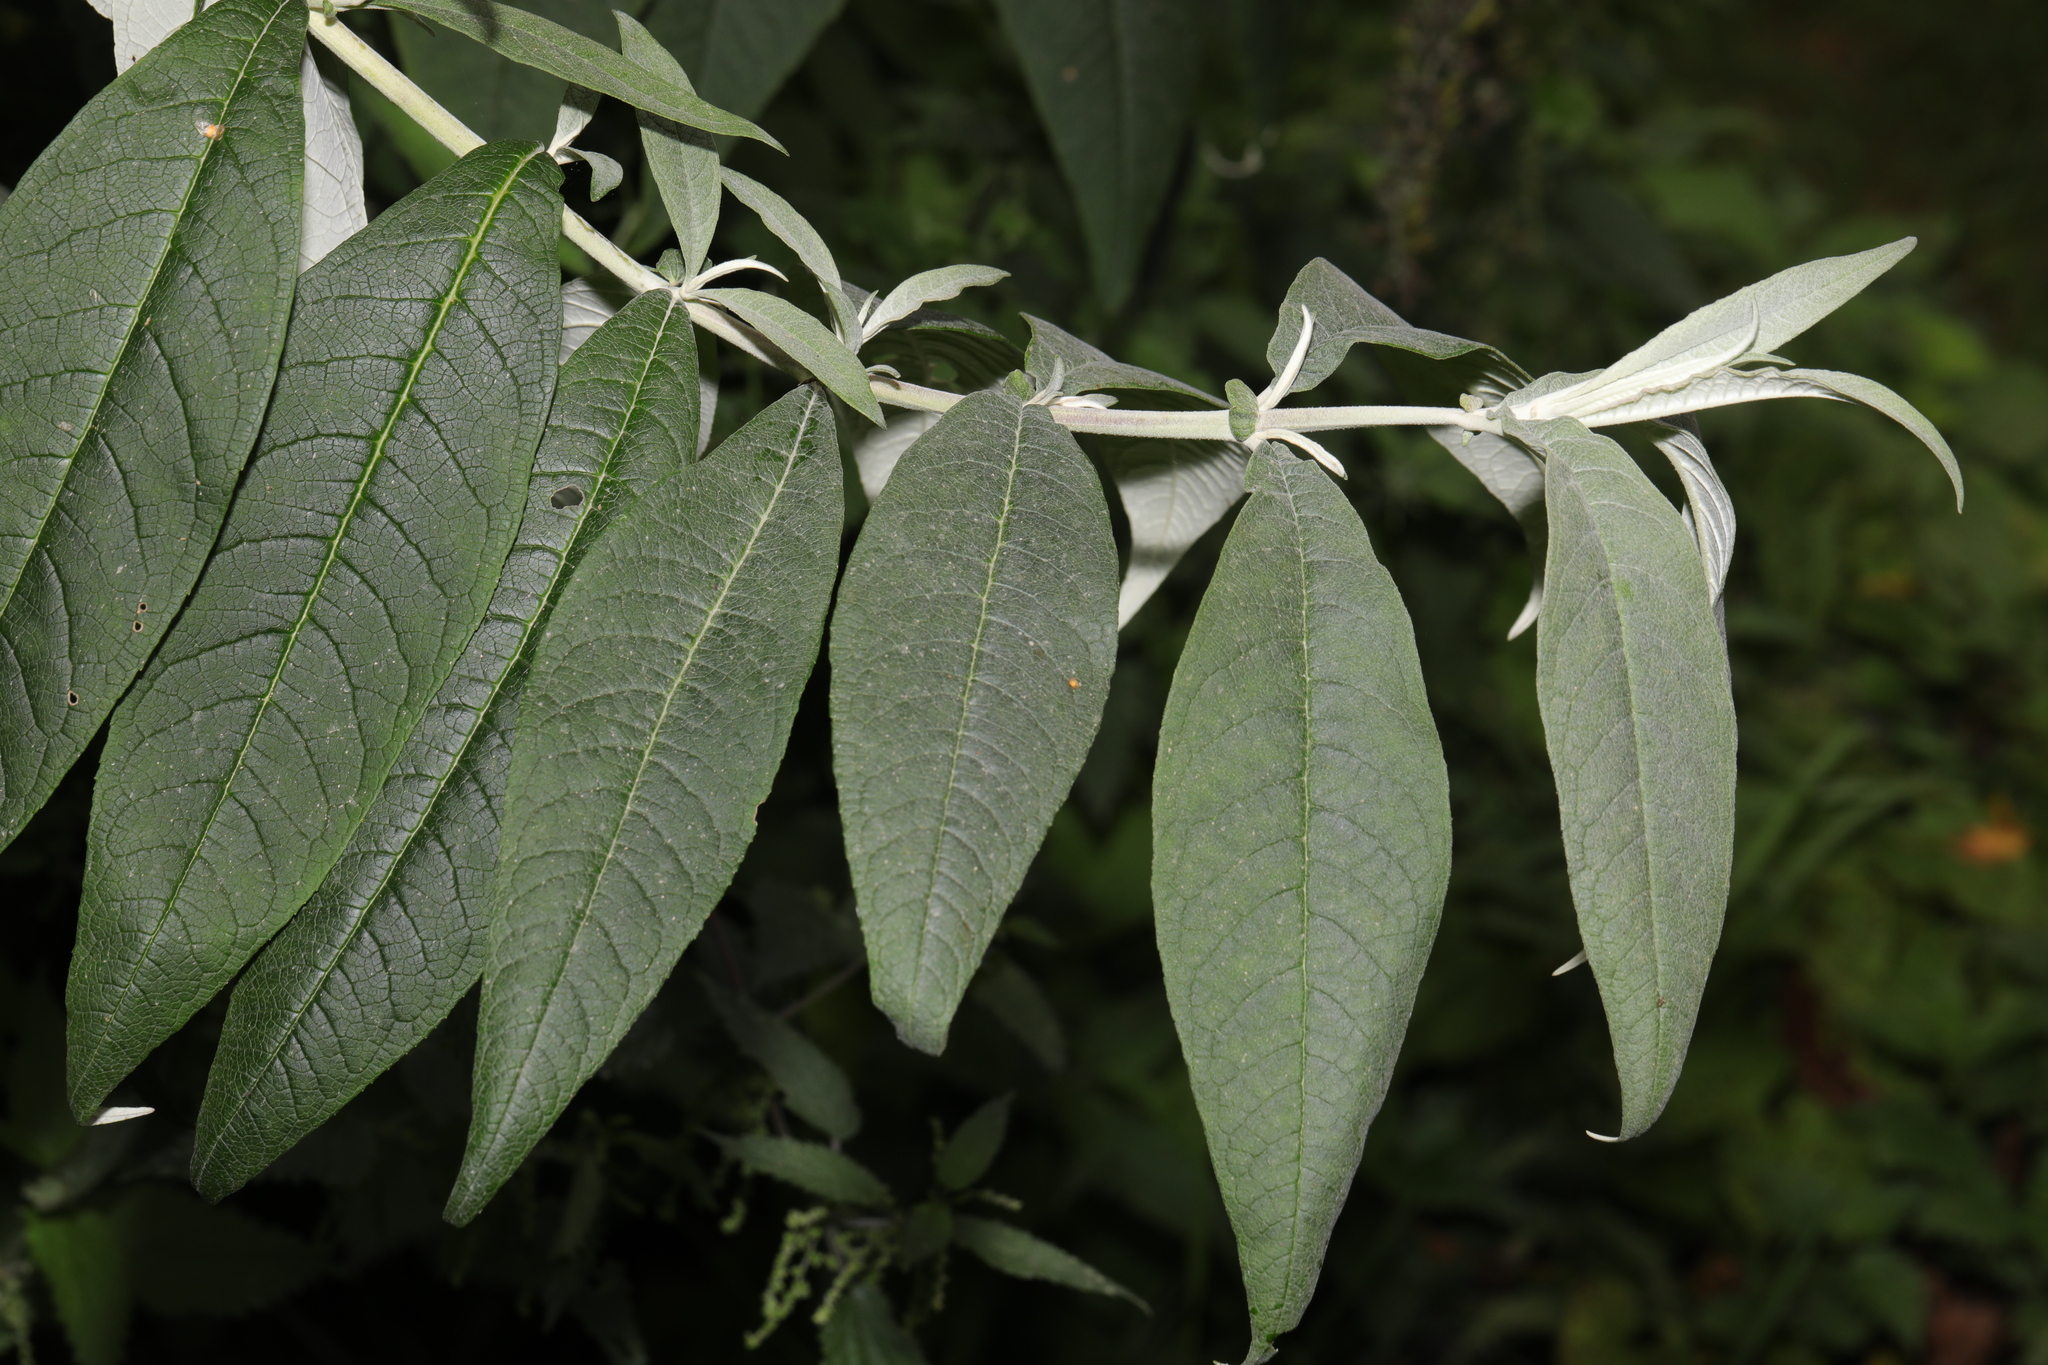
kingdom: Plantae
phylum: Tracheophyta
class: Magnoliopsida
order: Lamiales
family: Scrophulariaceae
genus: Buddleja
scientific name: Buddleja davidii
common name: Butterfly-bush
